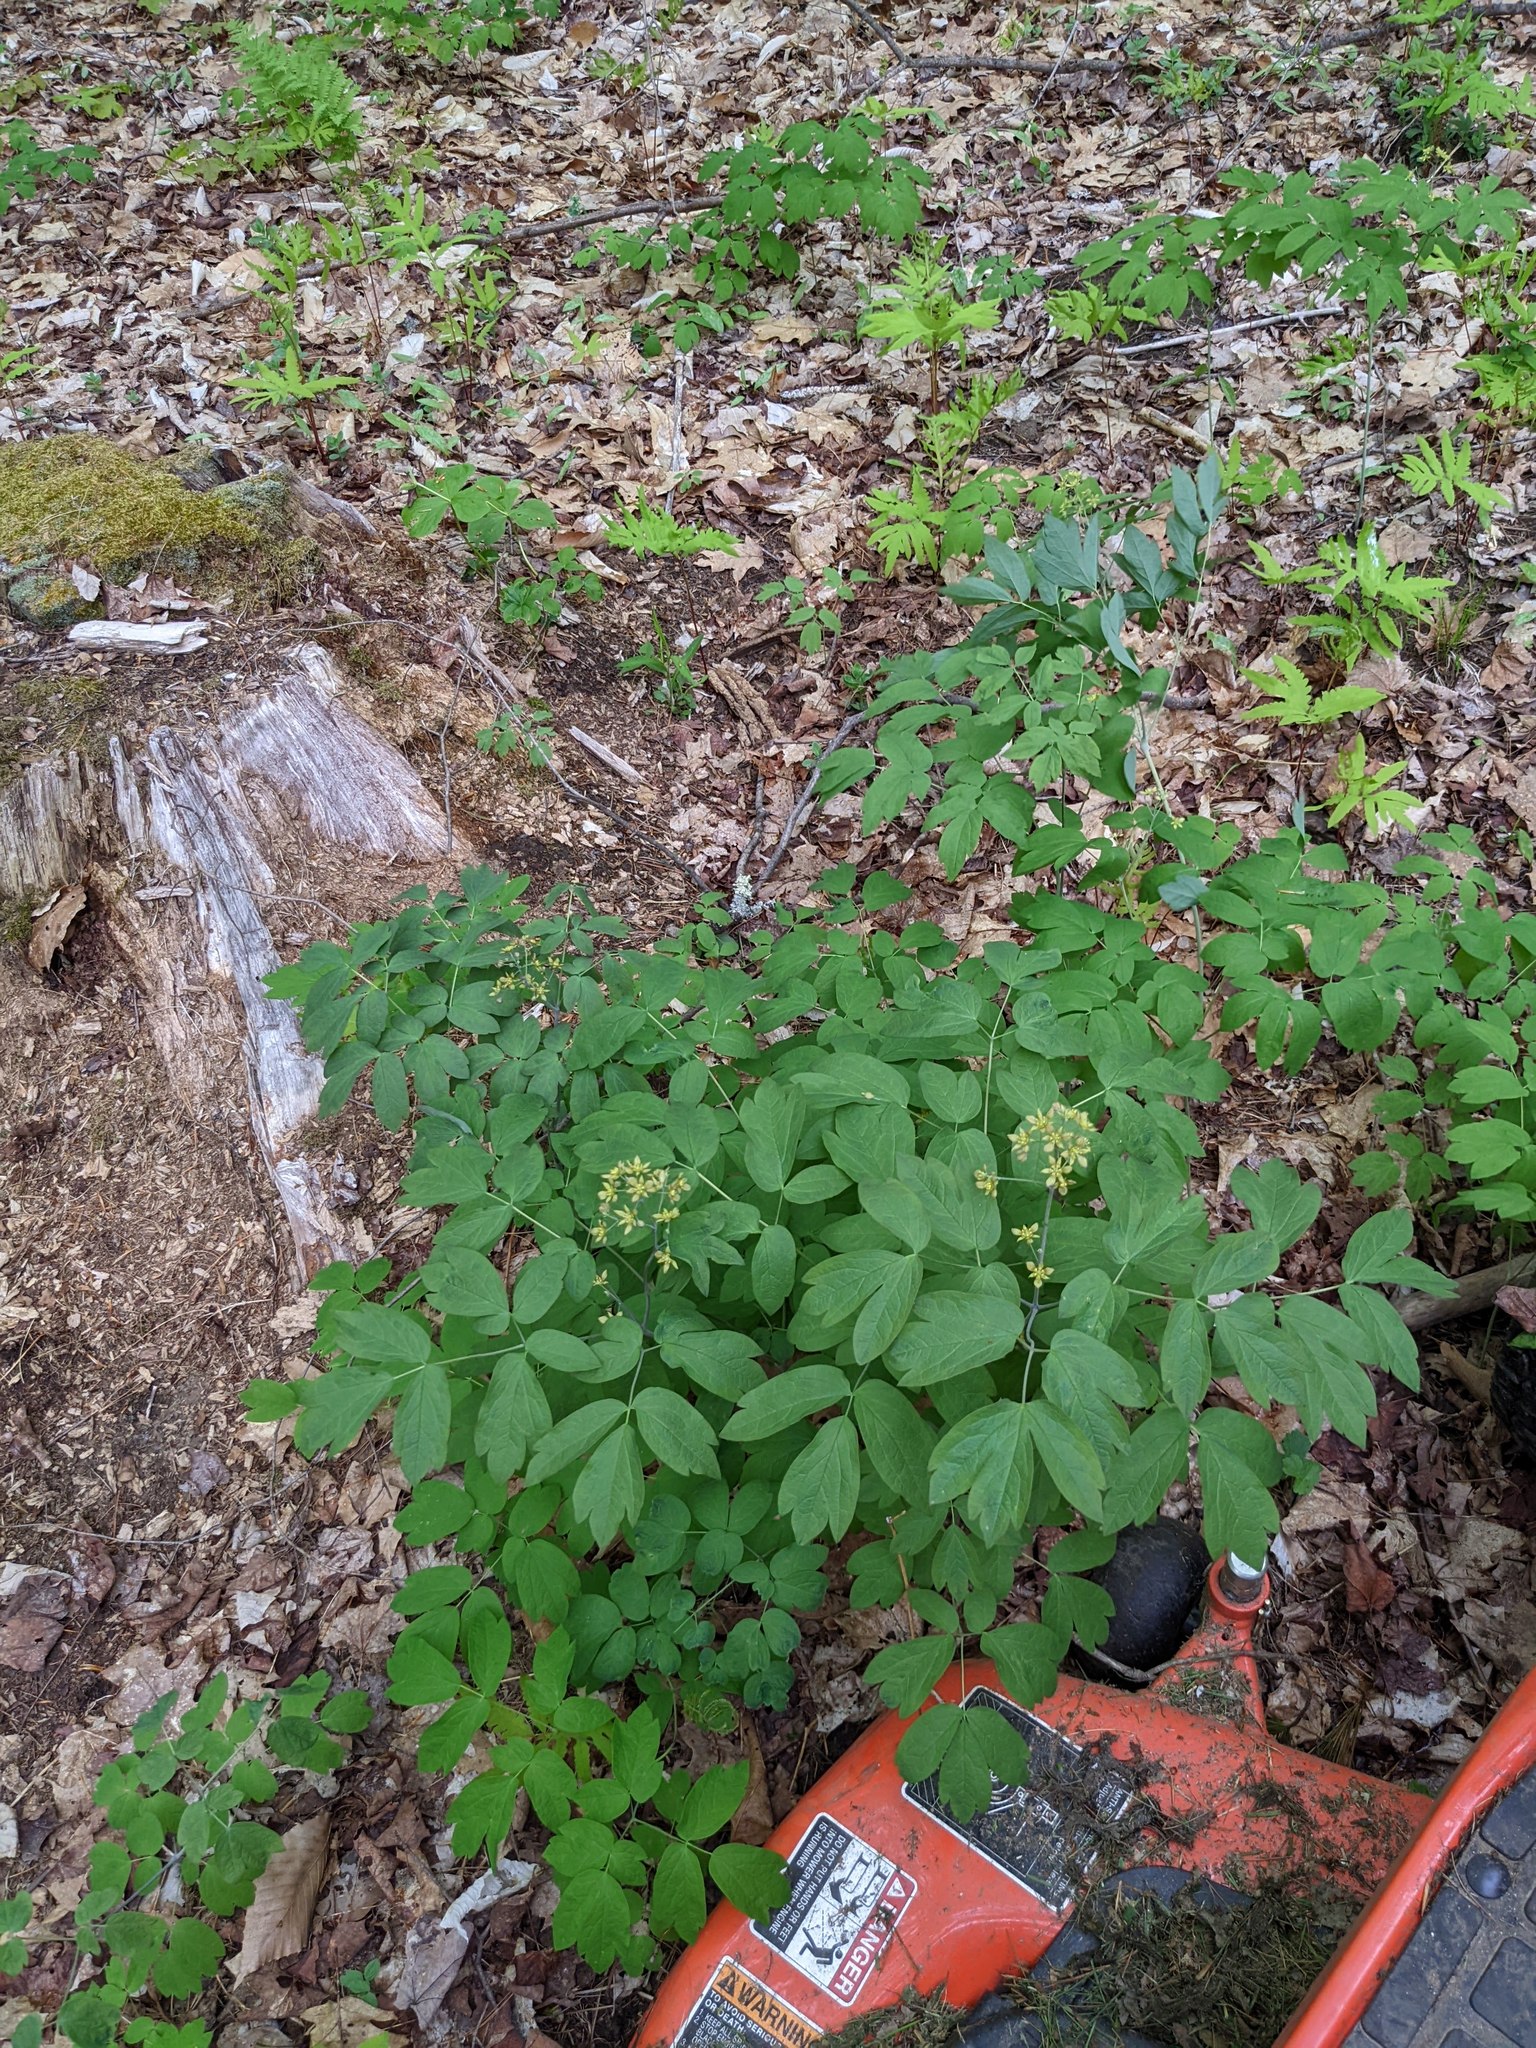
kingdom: Plantae
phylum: Tracheophyta
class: Magnoliopsida
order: Ranunculales
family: Berberidaceae
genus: Caulophyllum
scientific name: Caulophyllum thalictroides
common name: Blue cohosh
